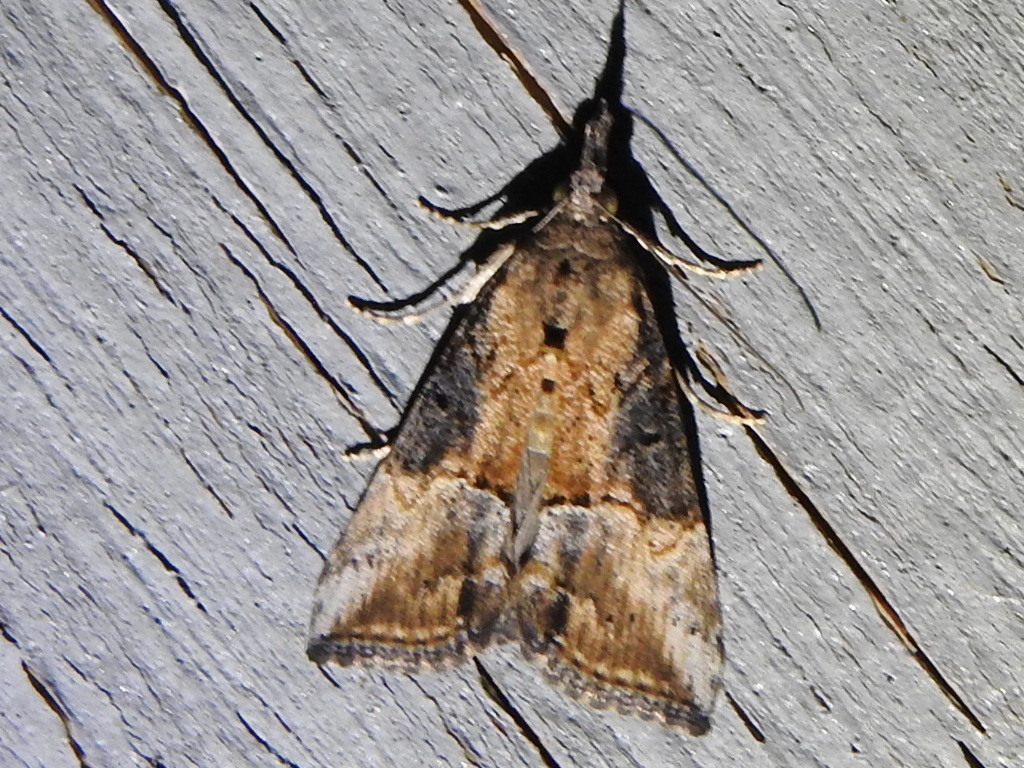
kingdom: Animalia
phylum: Arthropoda
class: Insecta
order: Lepidoptera
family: Erebidae
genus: Hypena
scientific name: Hypena scabra
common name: Green cloverworm
